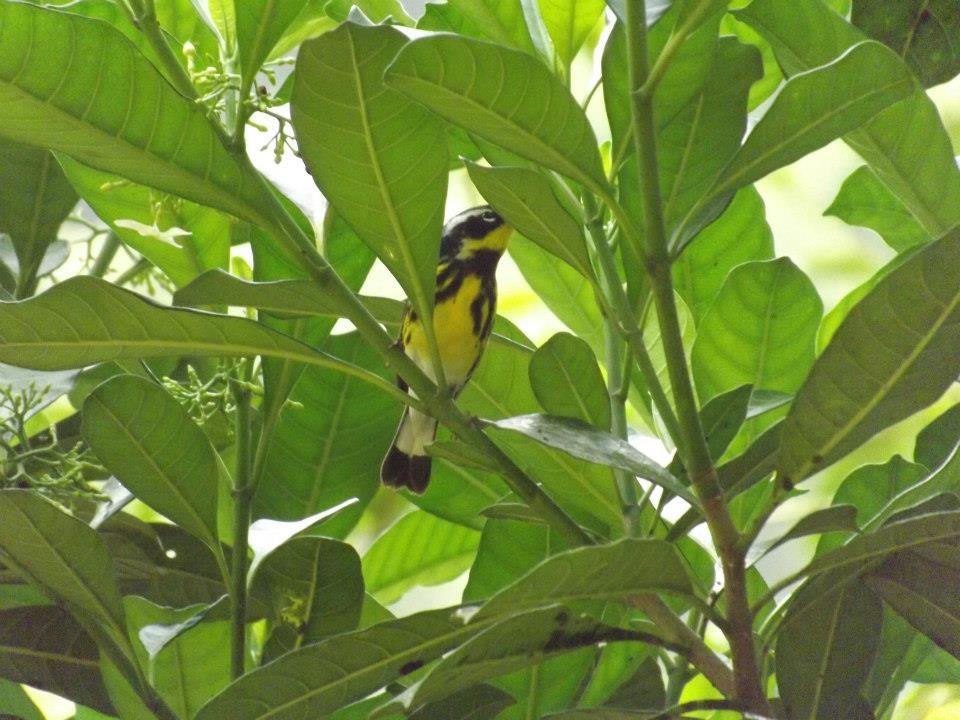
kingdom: Animalia
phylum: Chordata
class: Aves
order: Passeriformes
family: Parulidae
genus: Setophaga
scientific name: Setophaga magnolia
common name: Magnolia warbler
